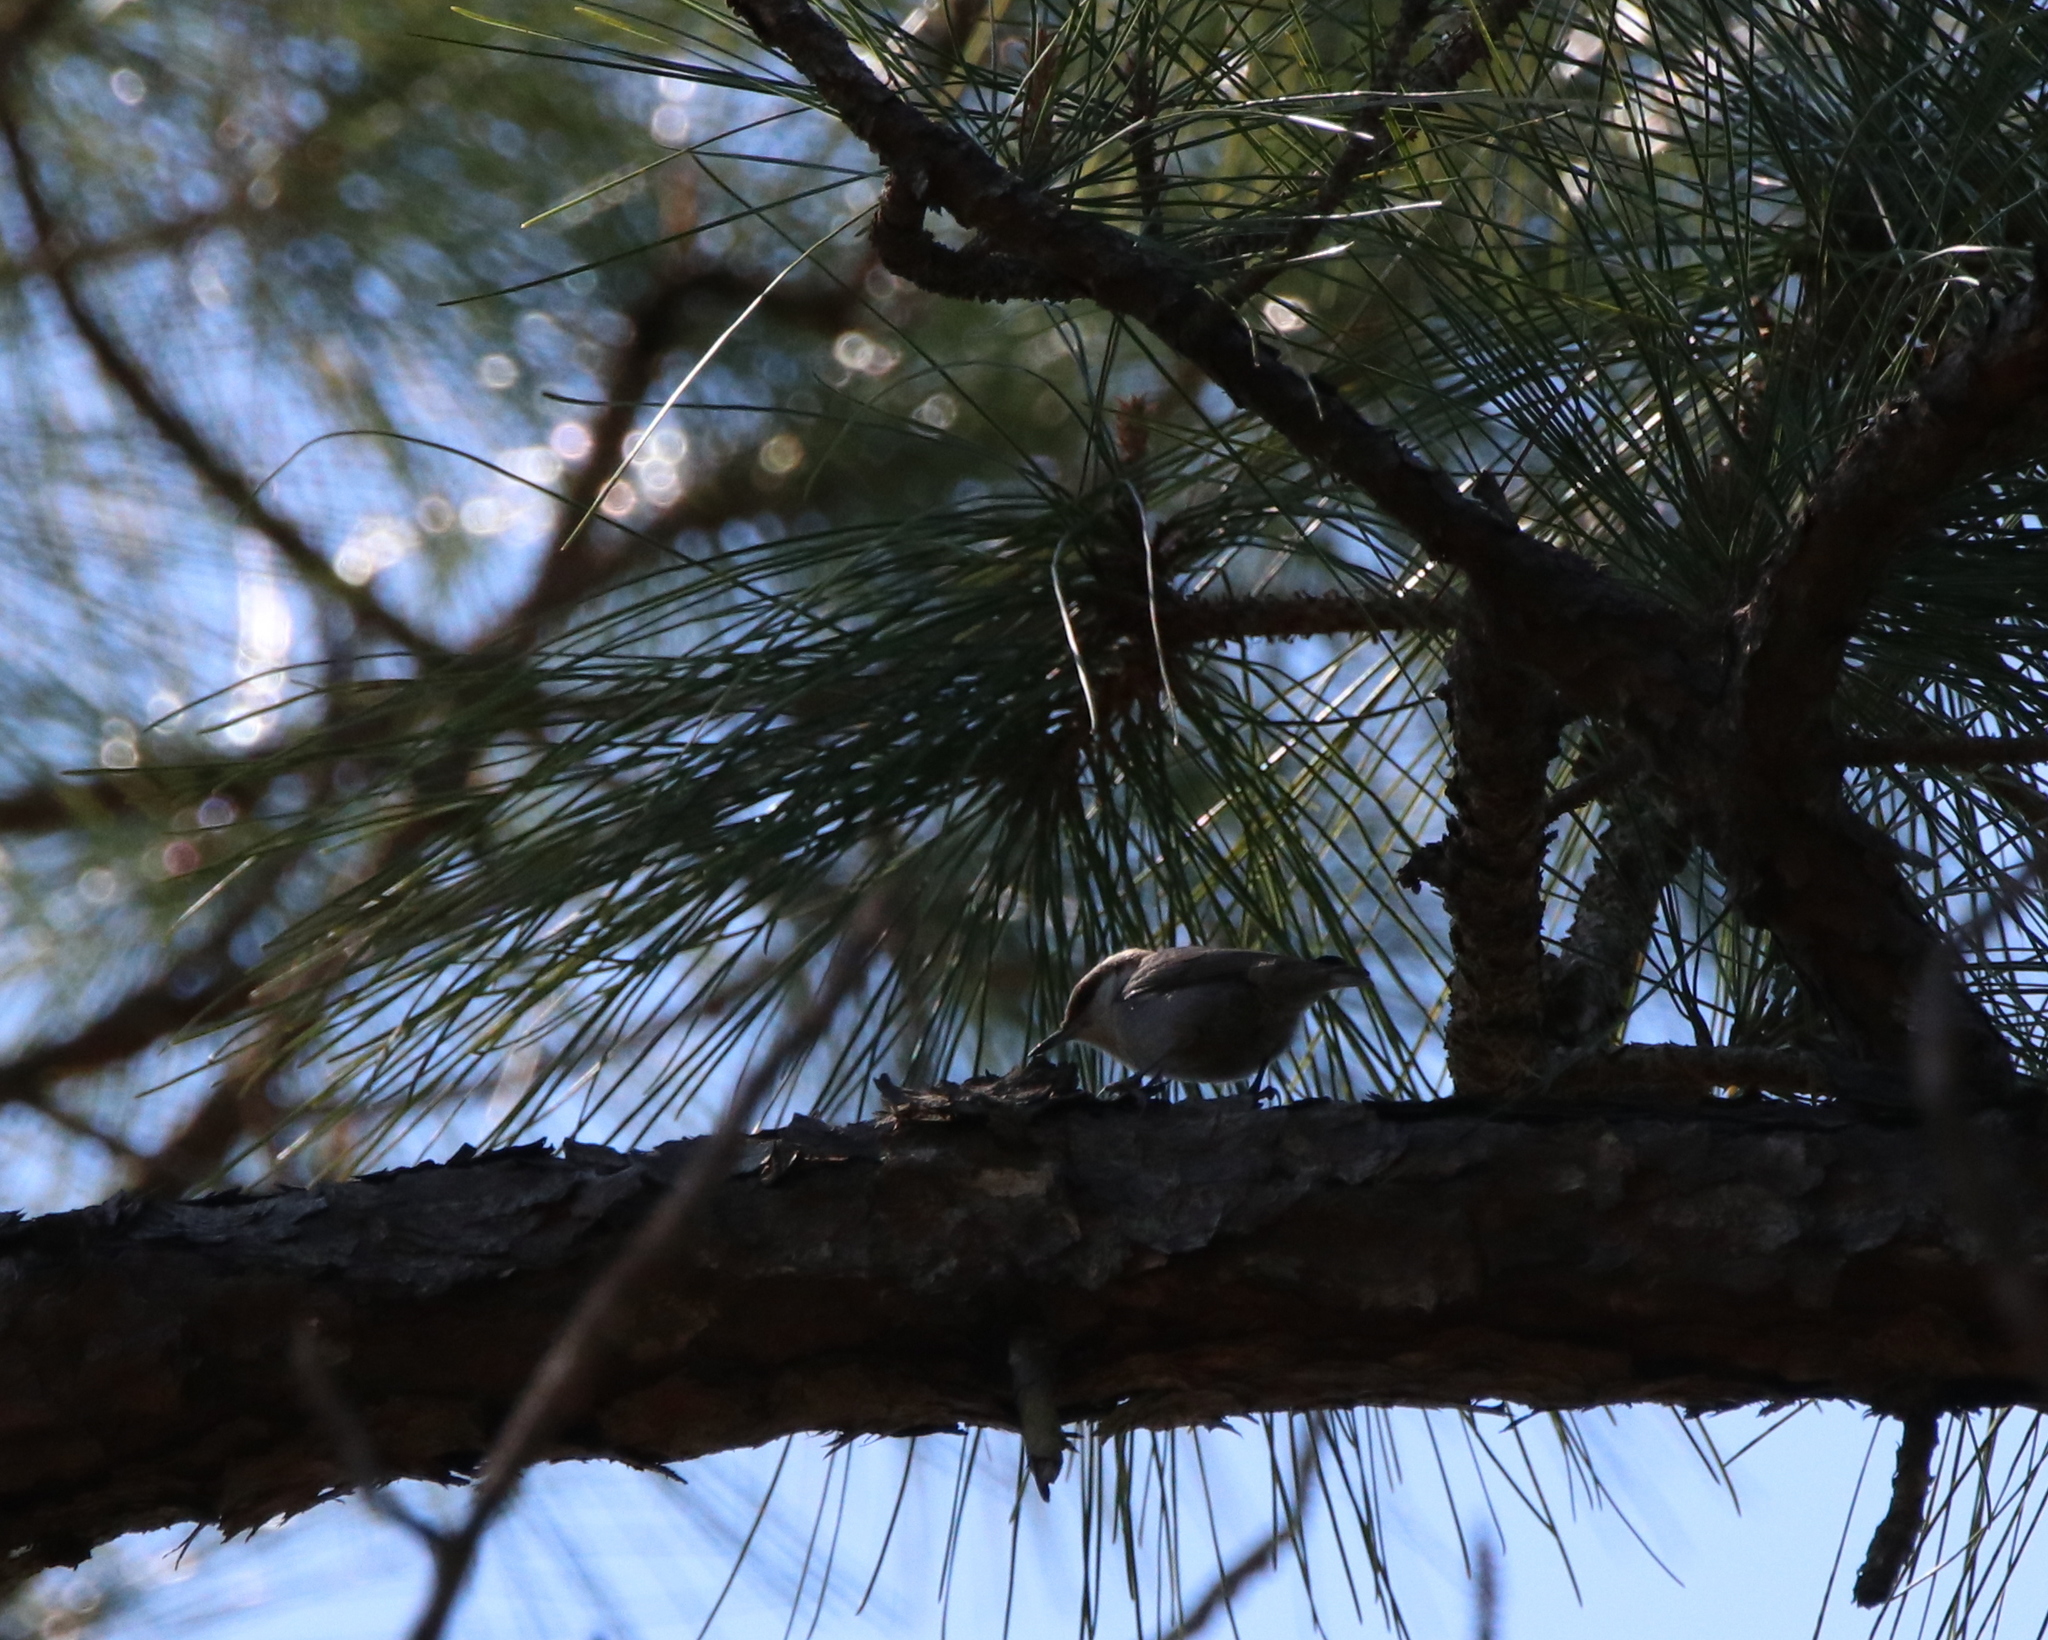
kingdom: Animalia
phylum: Chordata
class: Aves
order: Passeriformes
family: Sittidae
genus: Sitta
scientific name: Sitta pusilla
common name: Brown-headed nuthatch
